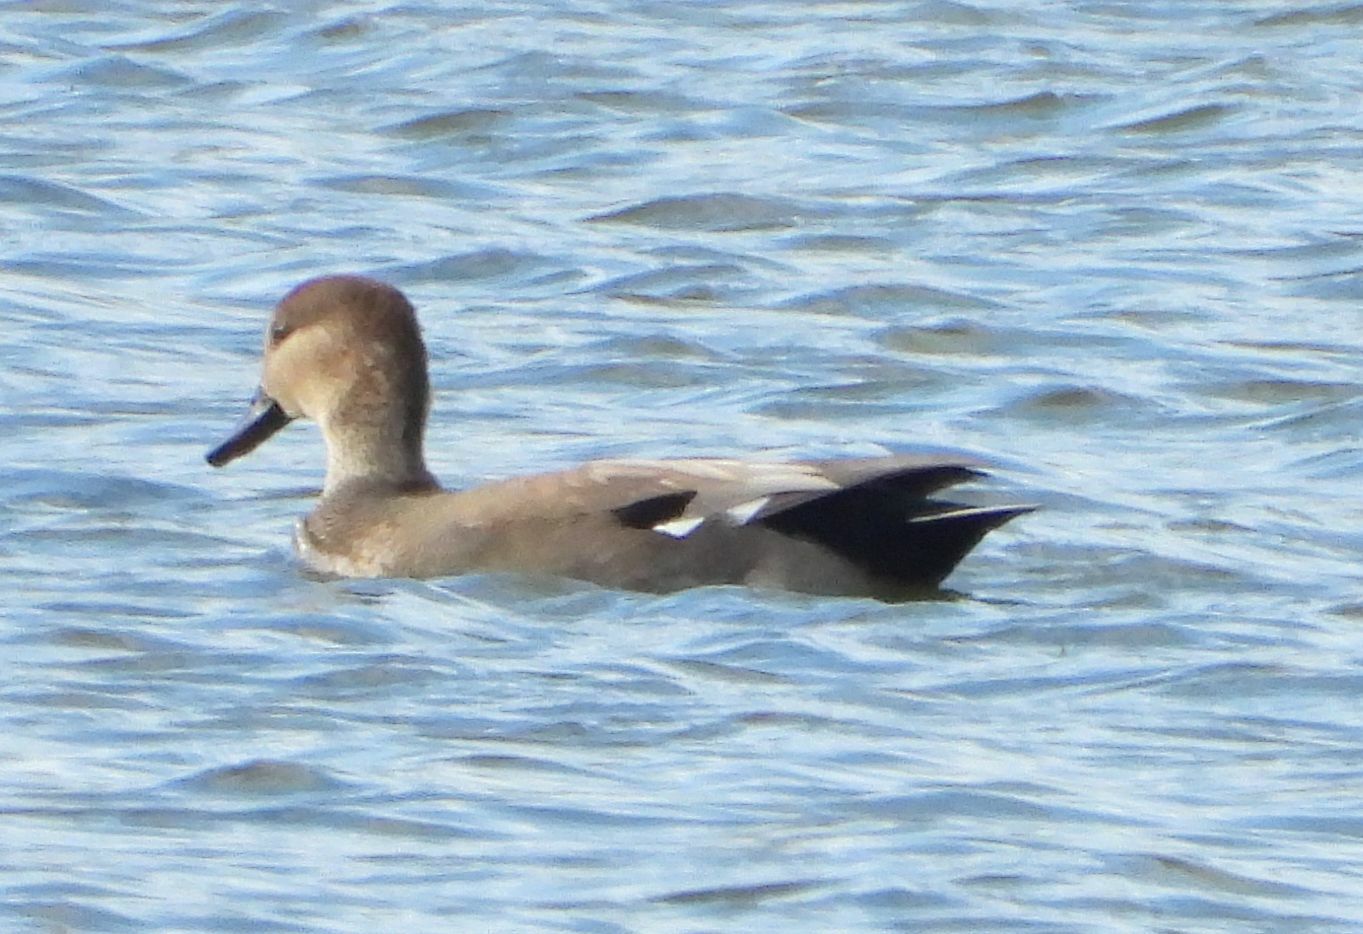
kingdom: Animalia
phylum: Chordata
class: Aves
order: Anseriformes
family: Anatidae
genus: Mareca
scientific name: Mareca strepera
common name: Gadwall
